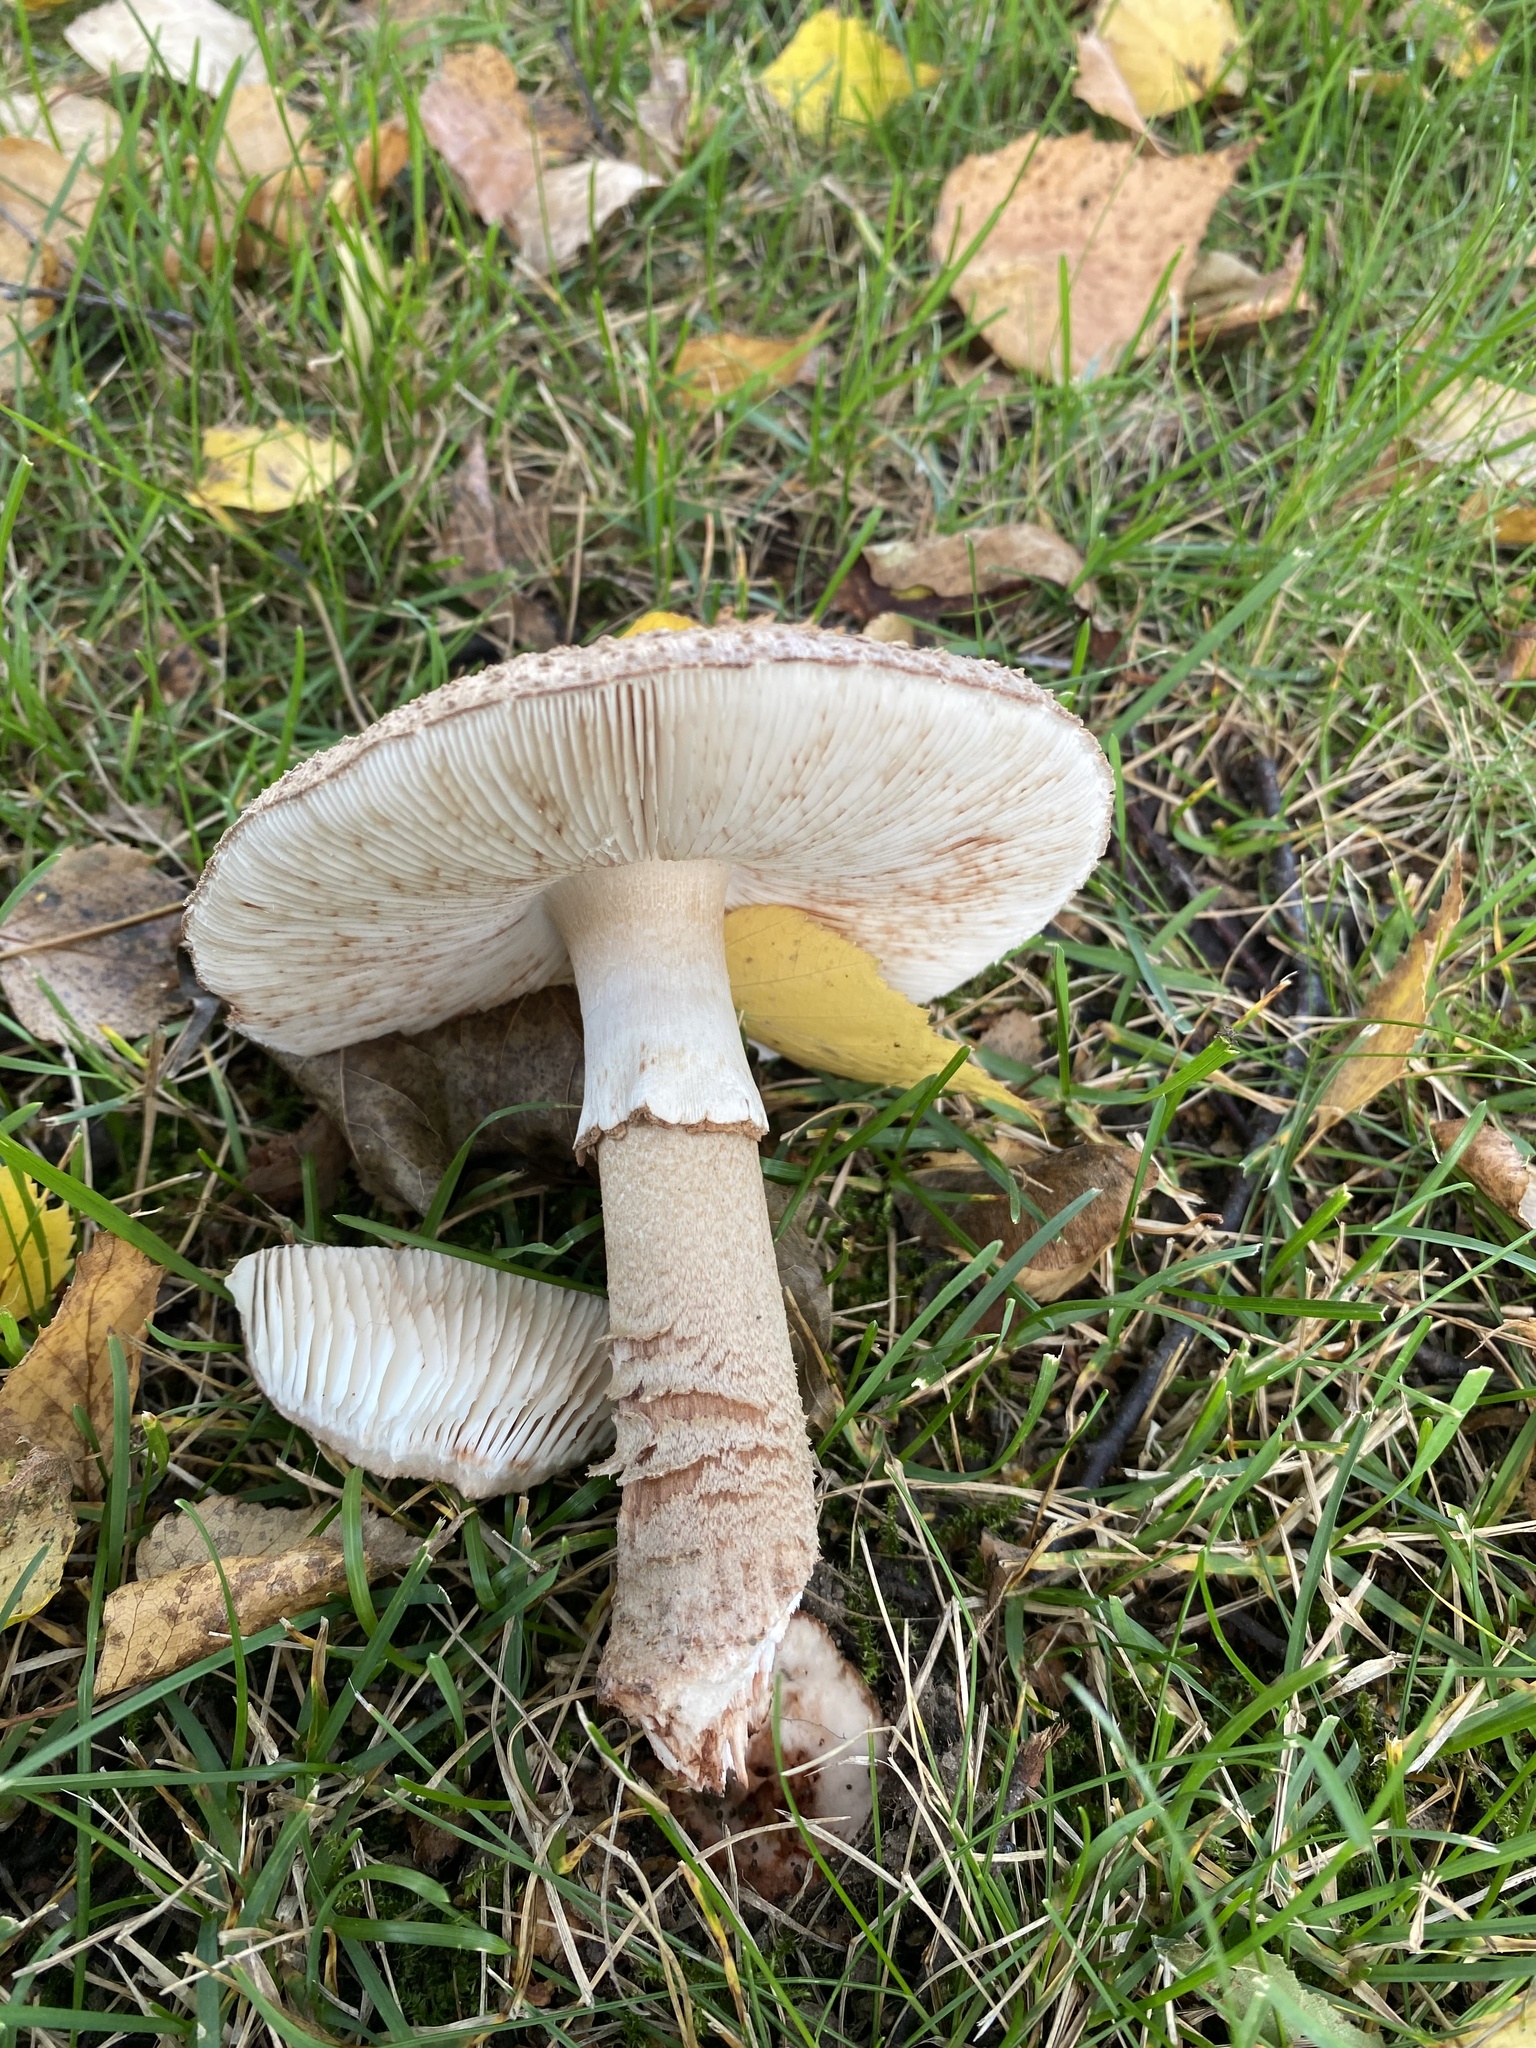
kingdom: Fungi
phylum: Basidiomycota
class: Agaricomycetes
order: Agaricales
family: Amanitaceae
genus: Amanita
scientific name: Amanita rubescens
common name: Blusher
